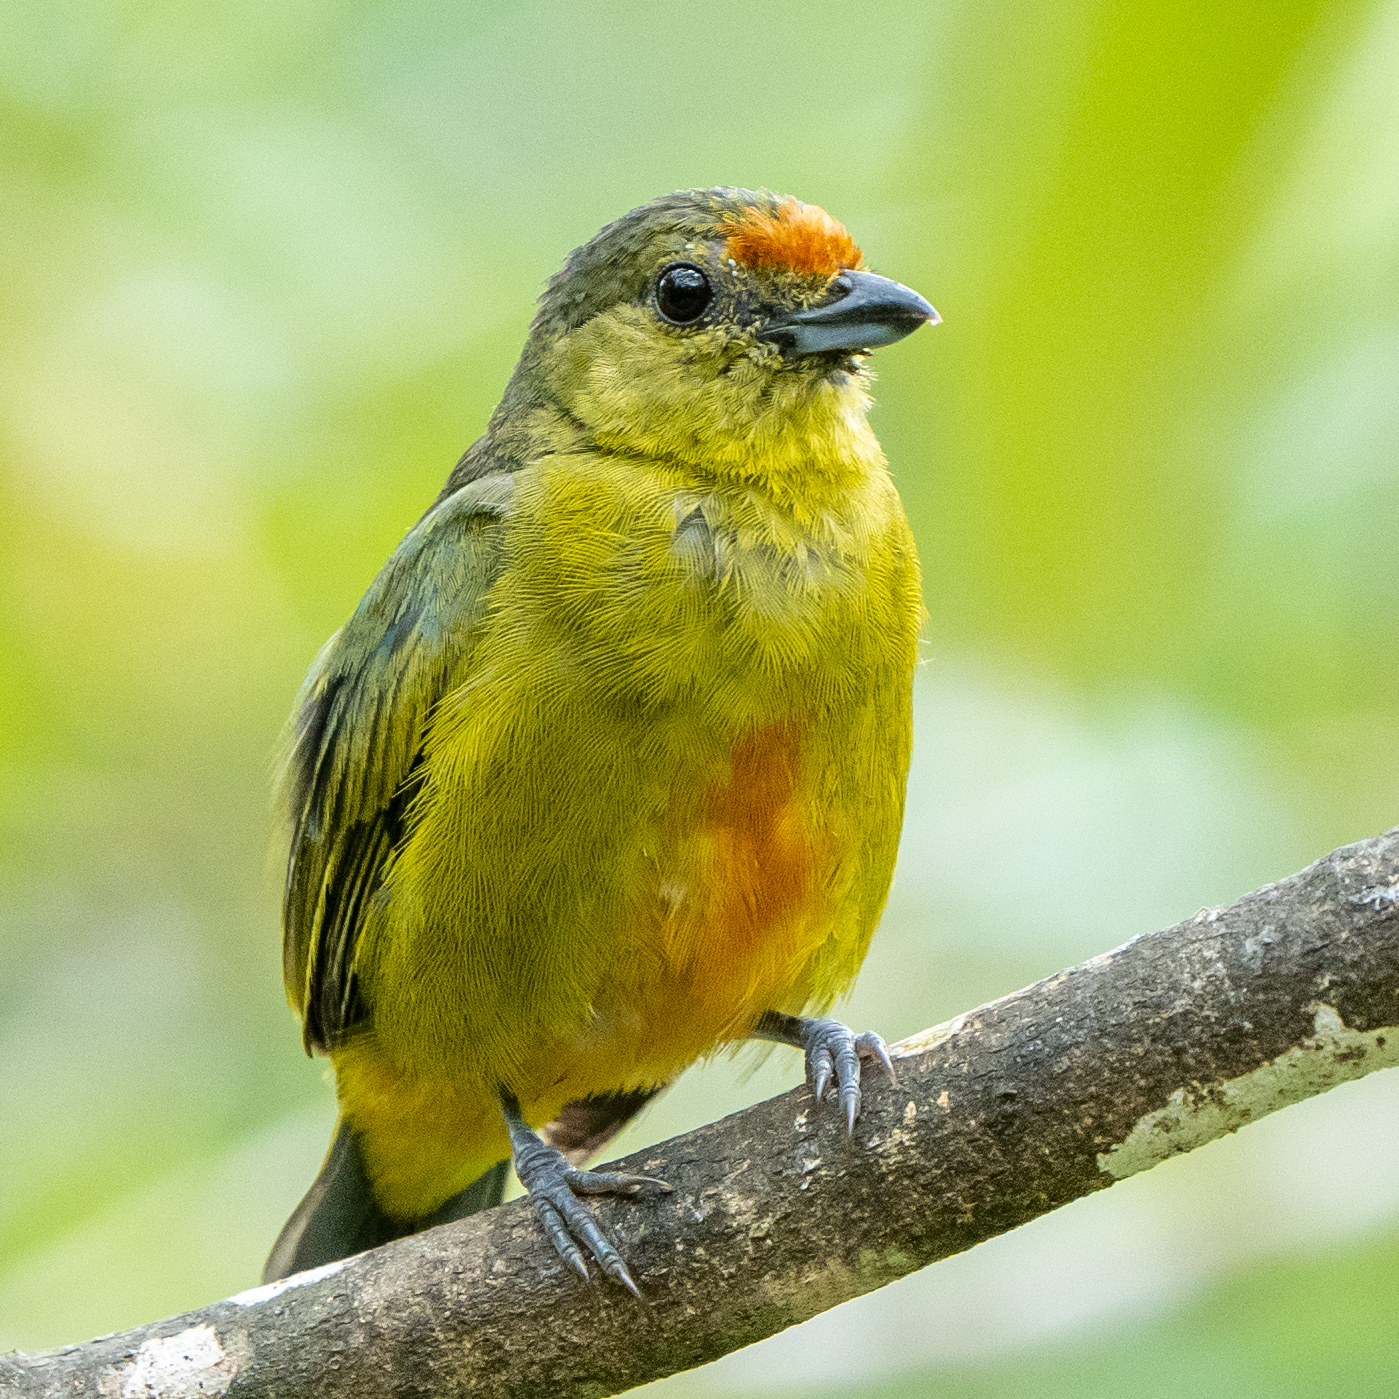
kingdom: Animalia
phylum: Chordata
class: Aves
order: Passeriformes
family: Fringillidae
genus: Euphonia
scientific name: Euphonia imitans
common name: Spot-crowned euphonia
